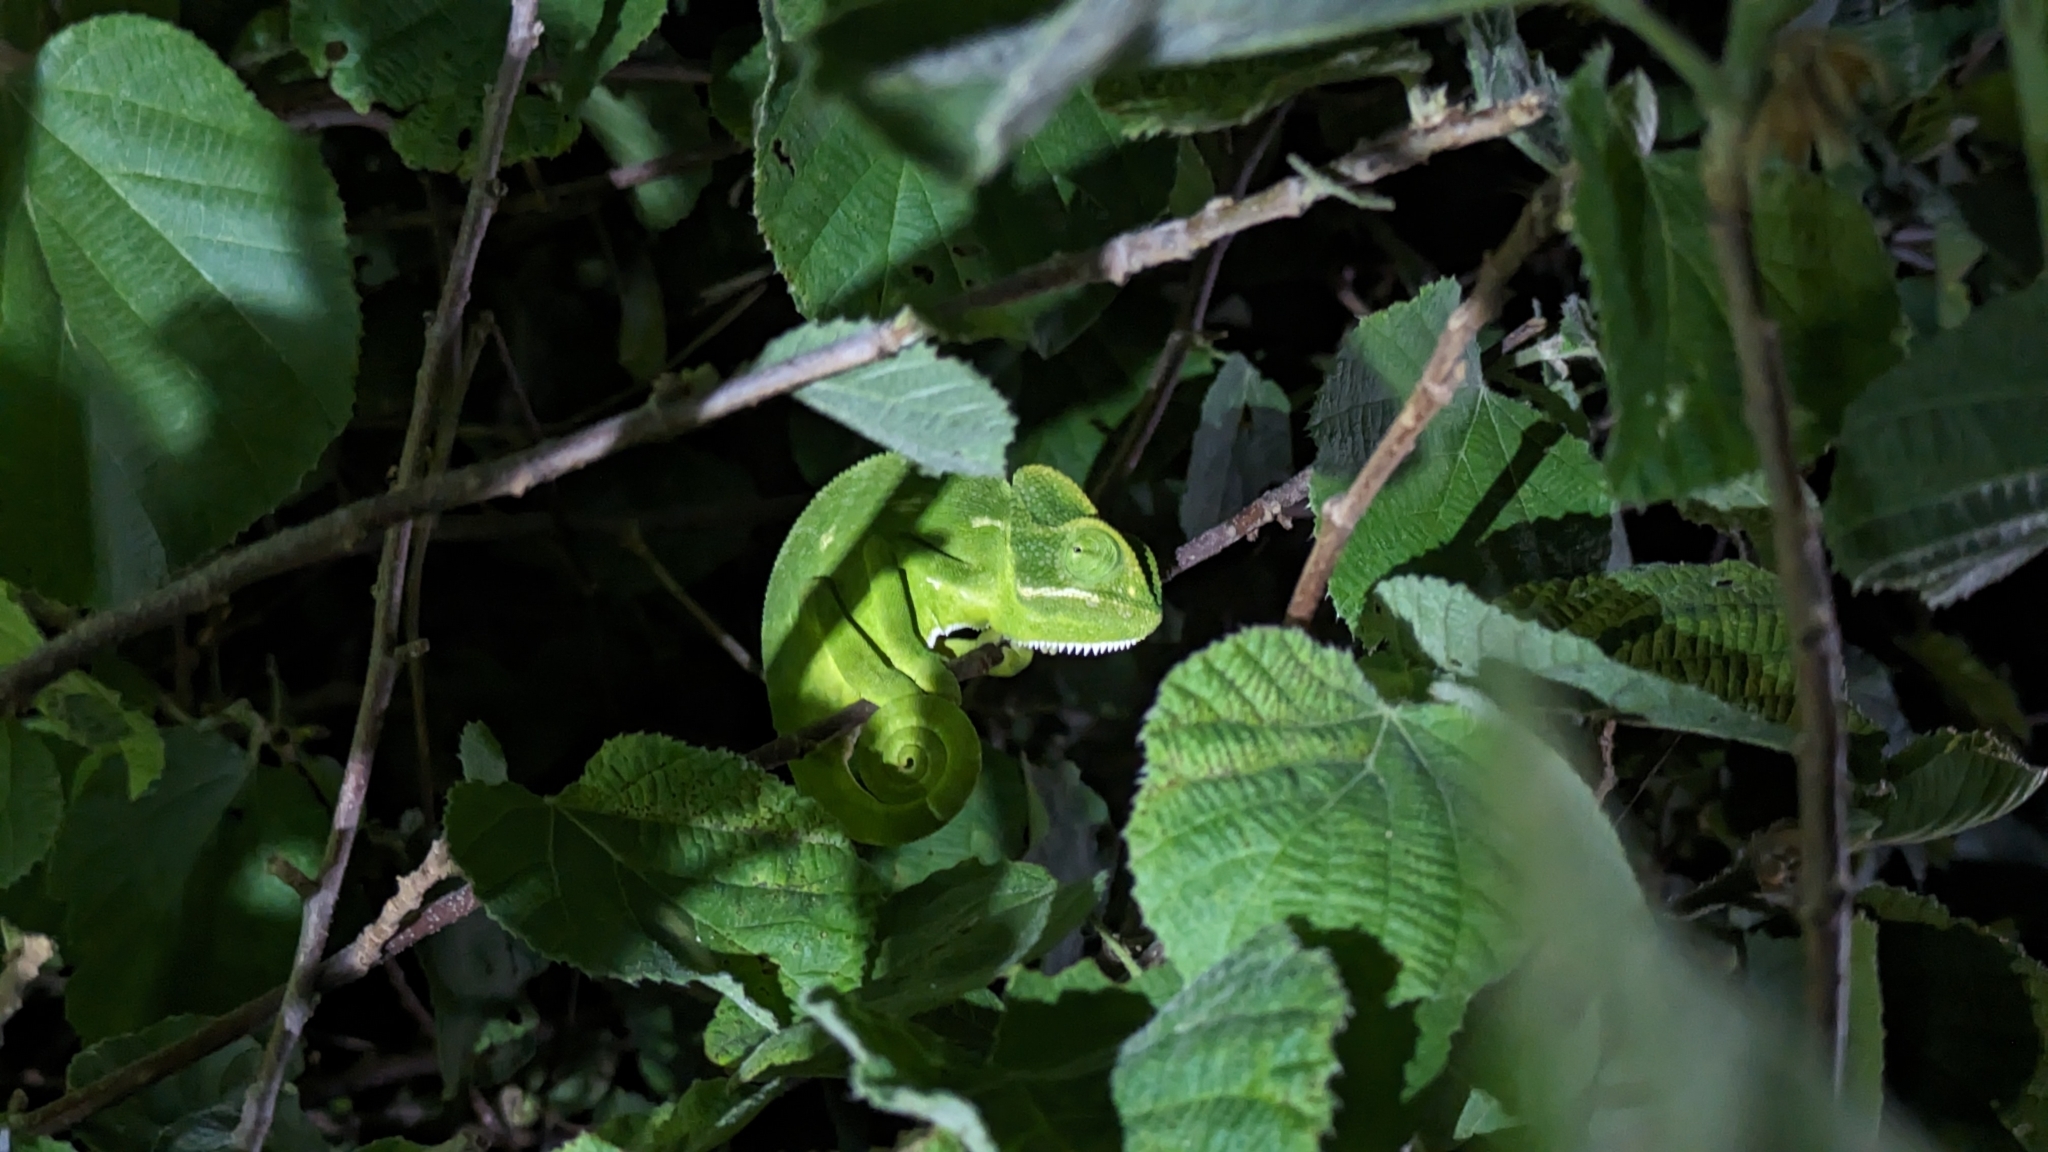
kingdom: Animalia
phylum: Chordata
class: Squamata
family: Chamaeleonidae
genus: Chamaeleo
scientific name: Chamaeleo zeylanicus
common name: Indian chameleon
